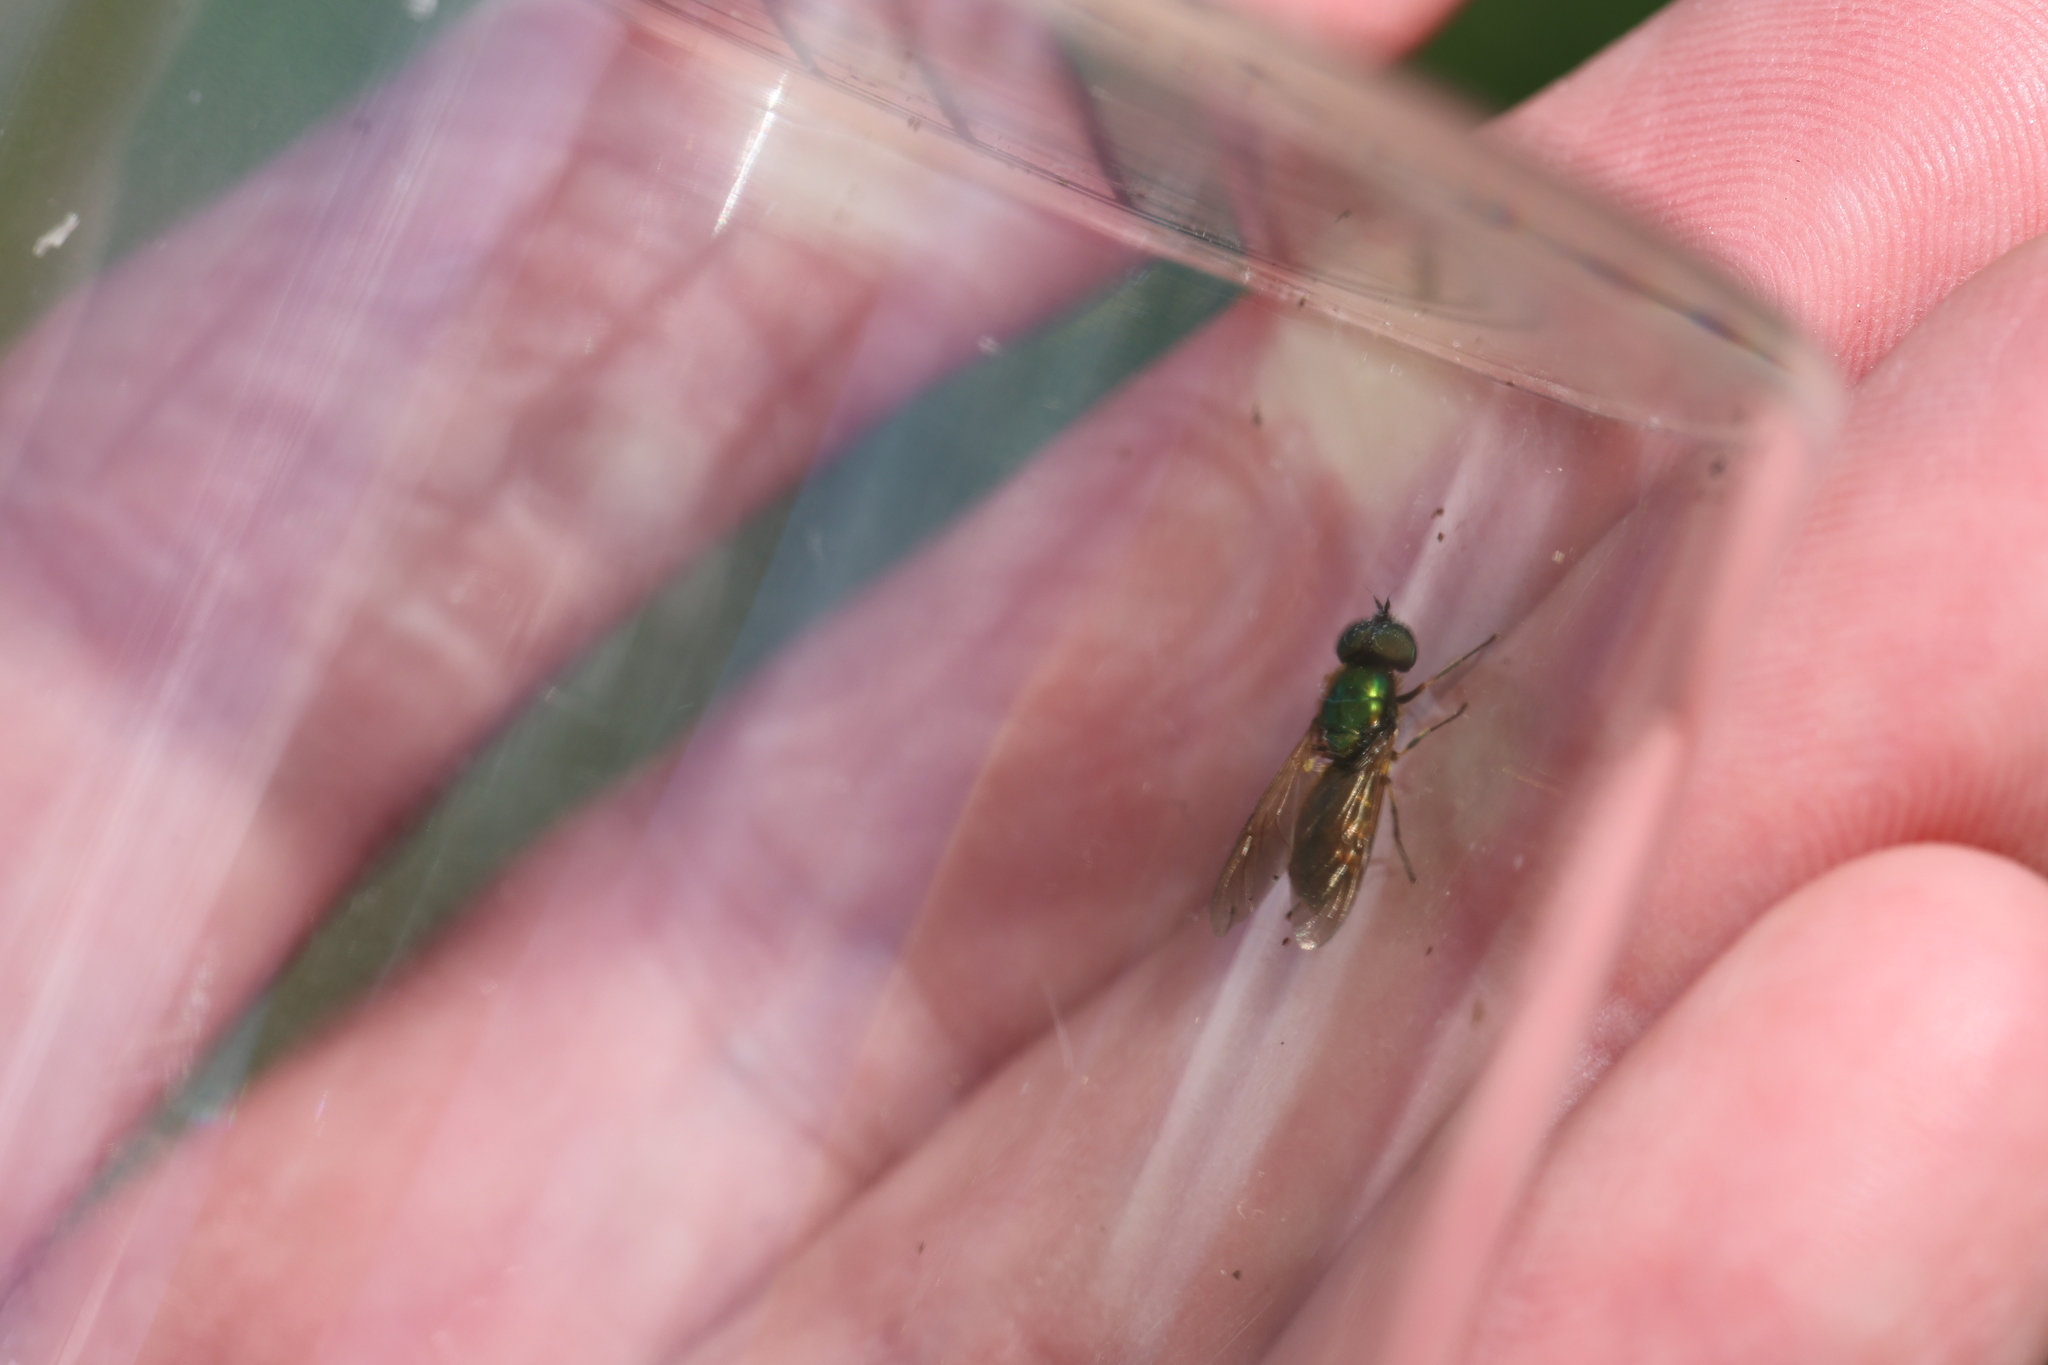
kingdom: Animalia
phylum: Arthropoda
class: Insecta
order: Diptera
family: Stratiomyidae
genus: Chloromyia
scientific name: Chloromyia formosa
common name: Soldier fly
